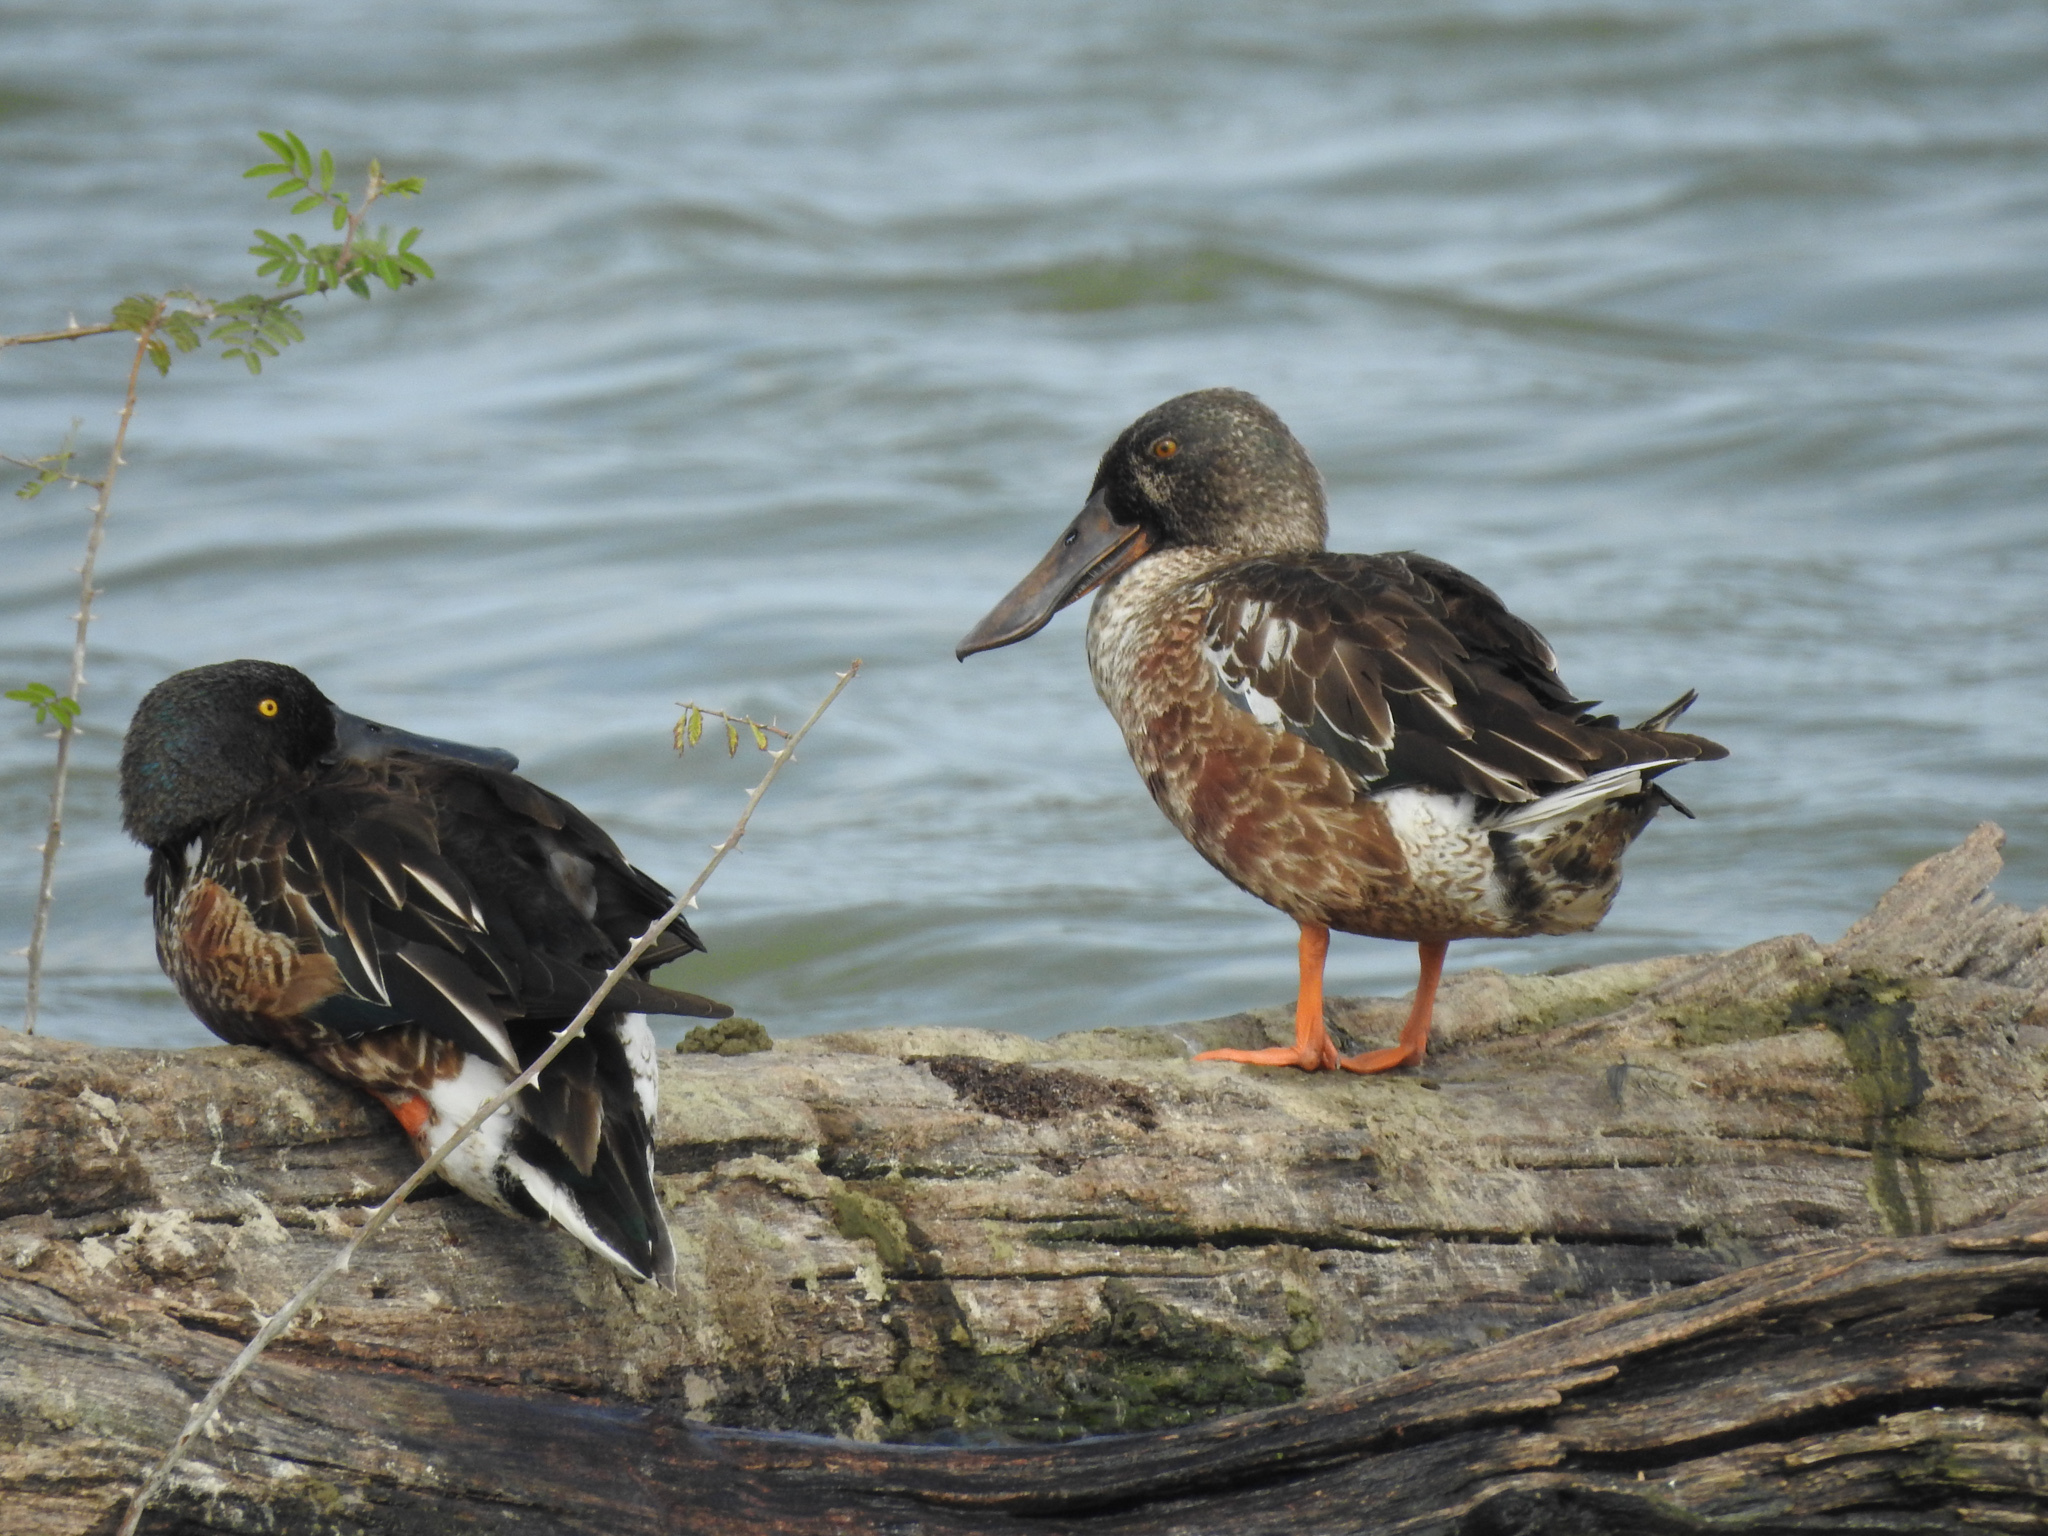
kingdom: Animalia
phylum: Chordata
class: Aves
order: Anseriformes
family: Anatidae
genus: Spatula
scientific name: Spatula clypeata
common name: Northern shoveler
